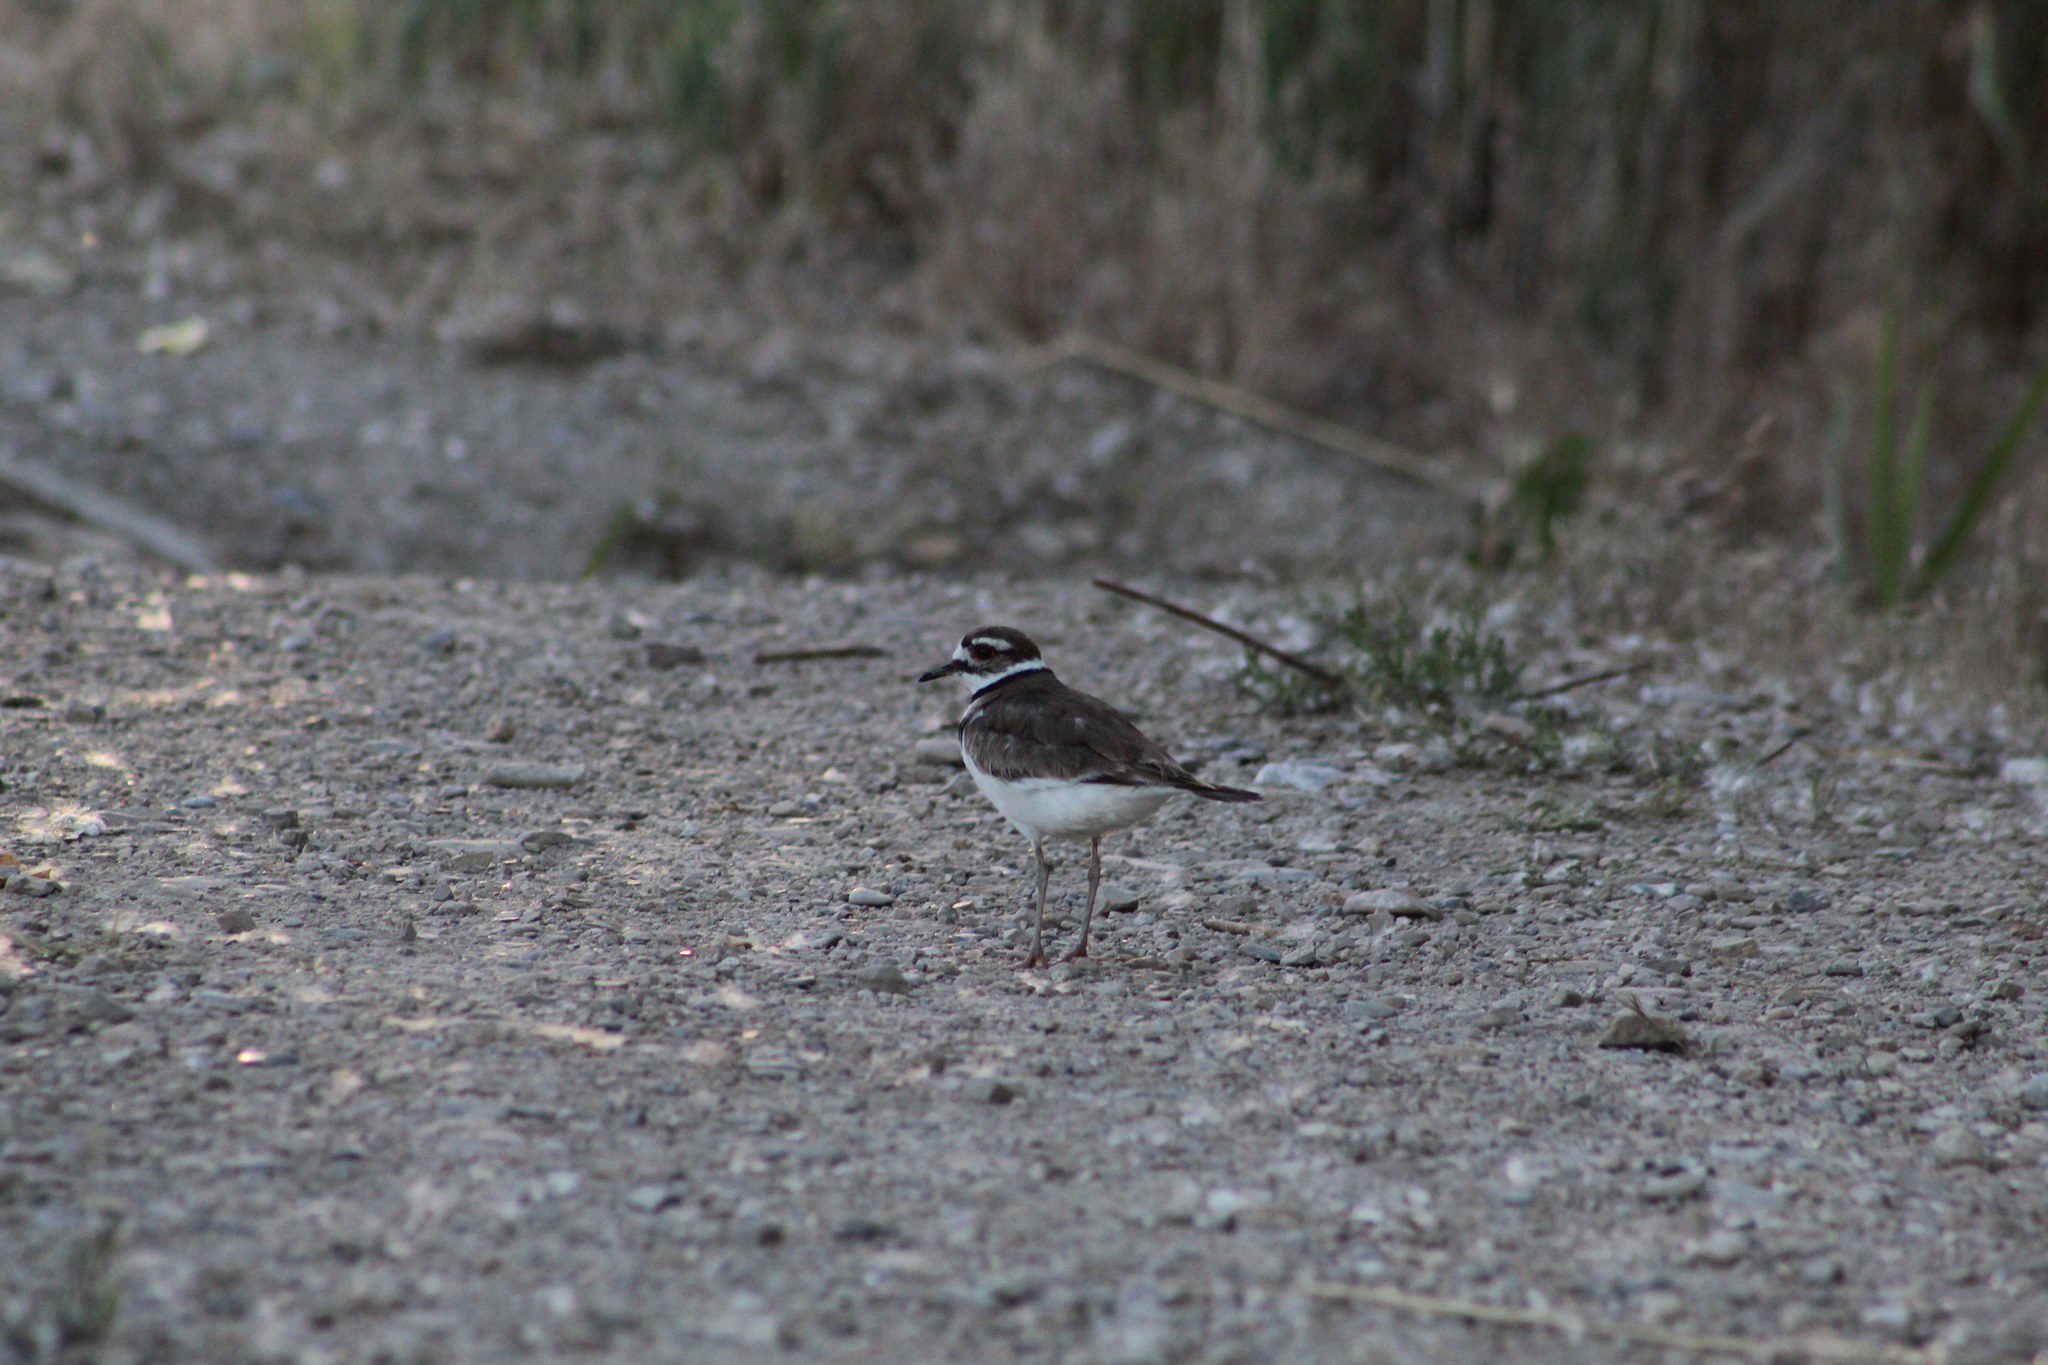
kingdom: Animalia
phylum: Chordata
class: Aves
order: Charadriiformes
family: Charadriidae
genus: Charadrius
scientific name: Charadrius vociferus
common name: Killdeer
